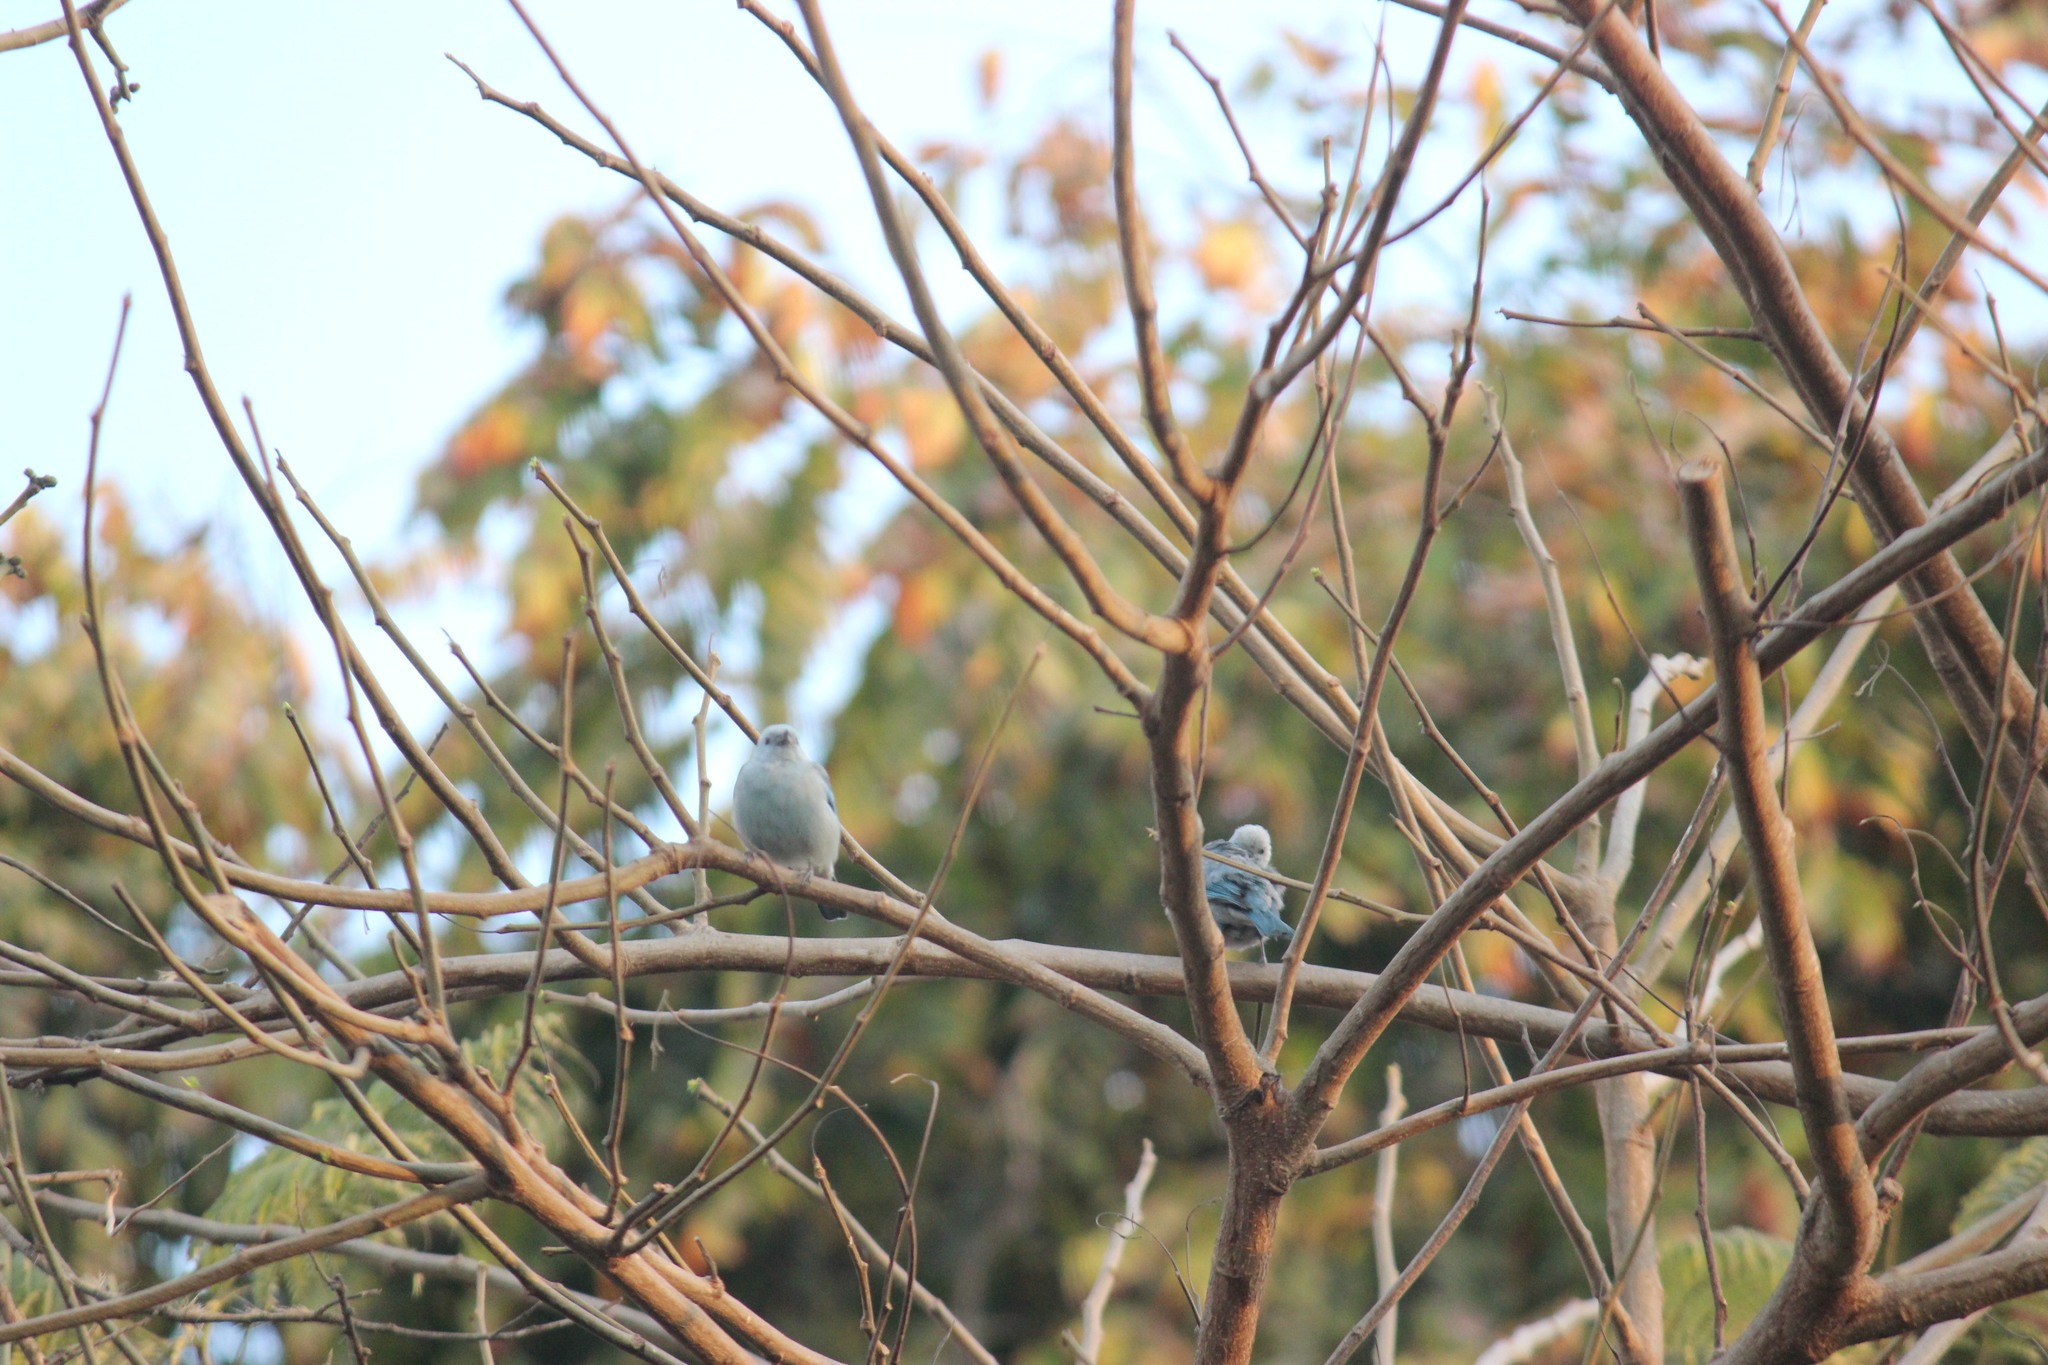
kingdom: Animalia
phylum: Chordata
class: Aves
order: Passeriformes
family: Thraupidae
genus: Thraupis
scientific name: Thraupis episcopus
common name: Blue-grey tanager
